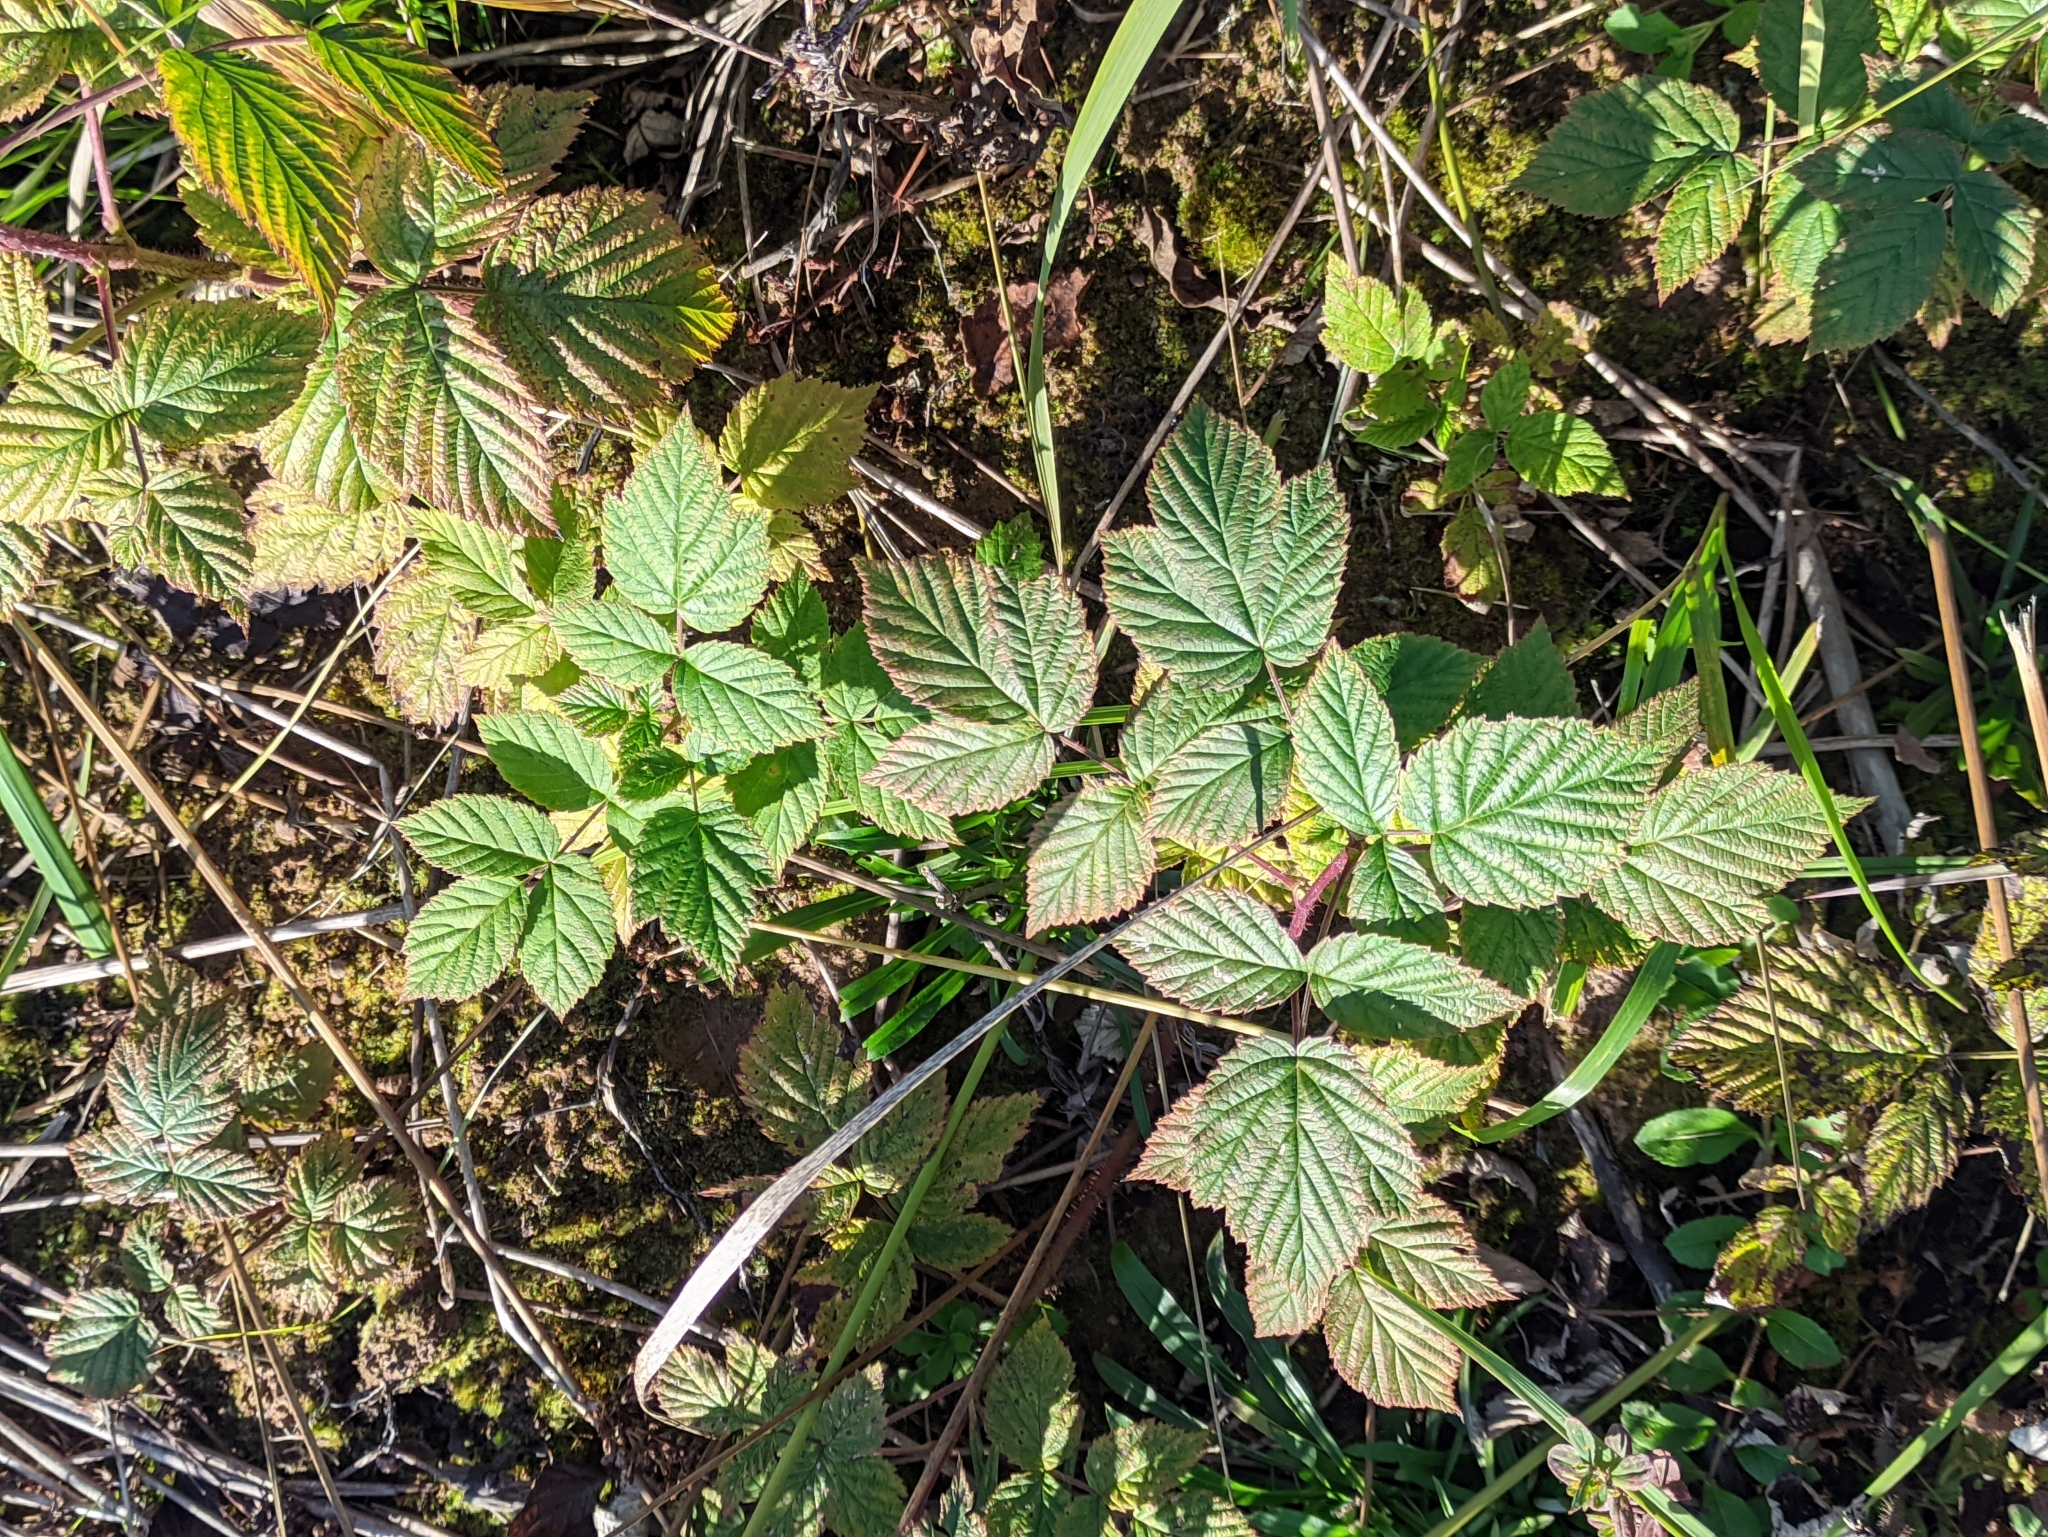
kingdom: Plantae
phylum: Tracheophyta
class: Magnoliopsida
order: Rosales
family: Rosaceae
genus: Rubus
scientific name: Rubus idaeus
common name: Raspberry
